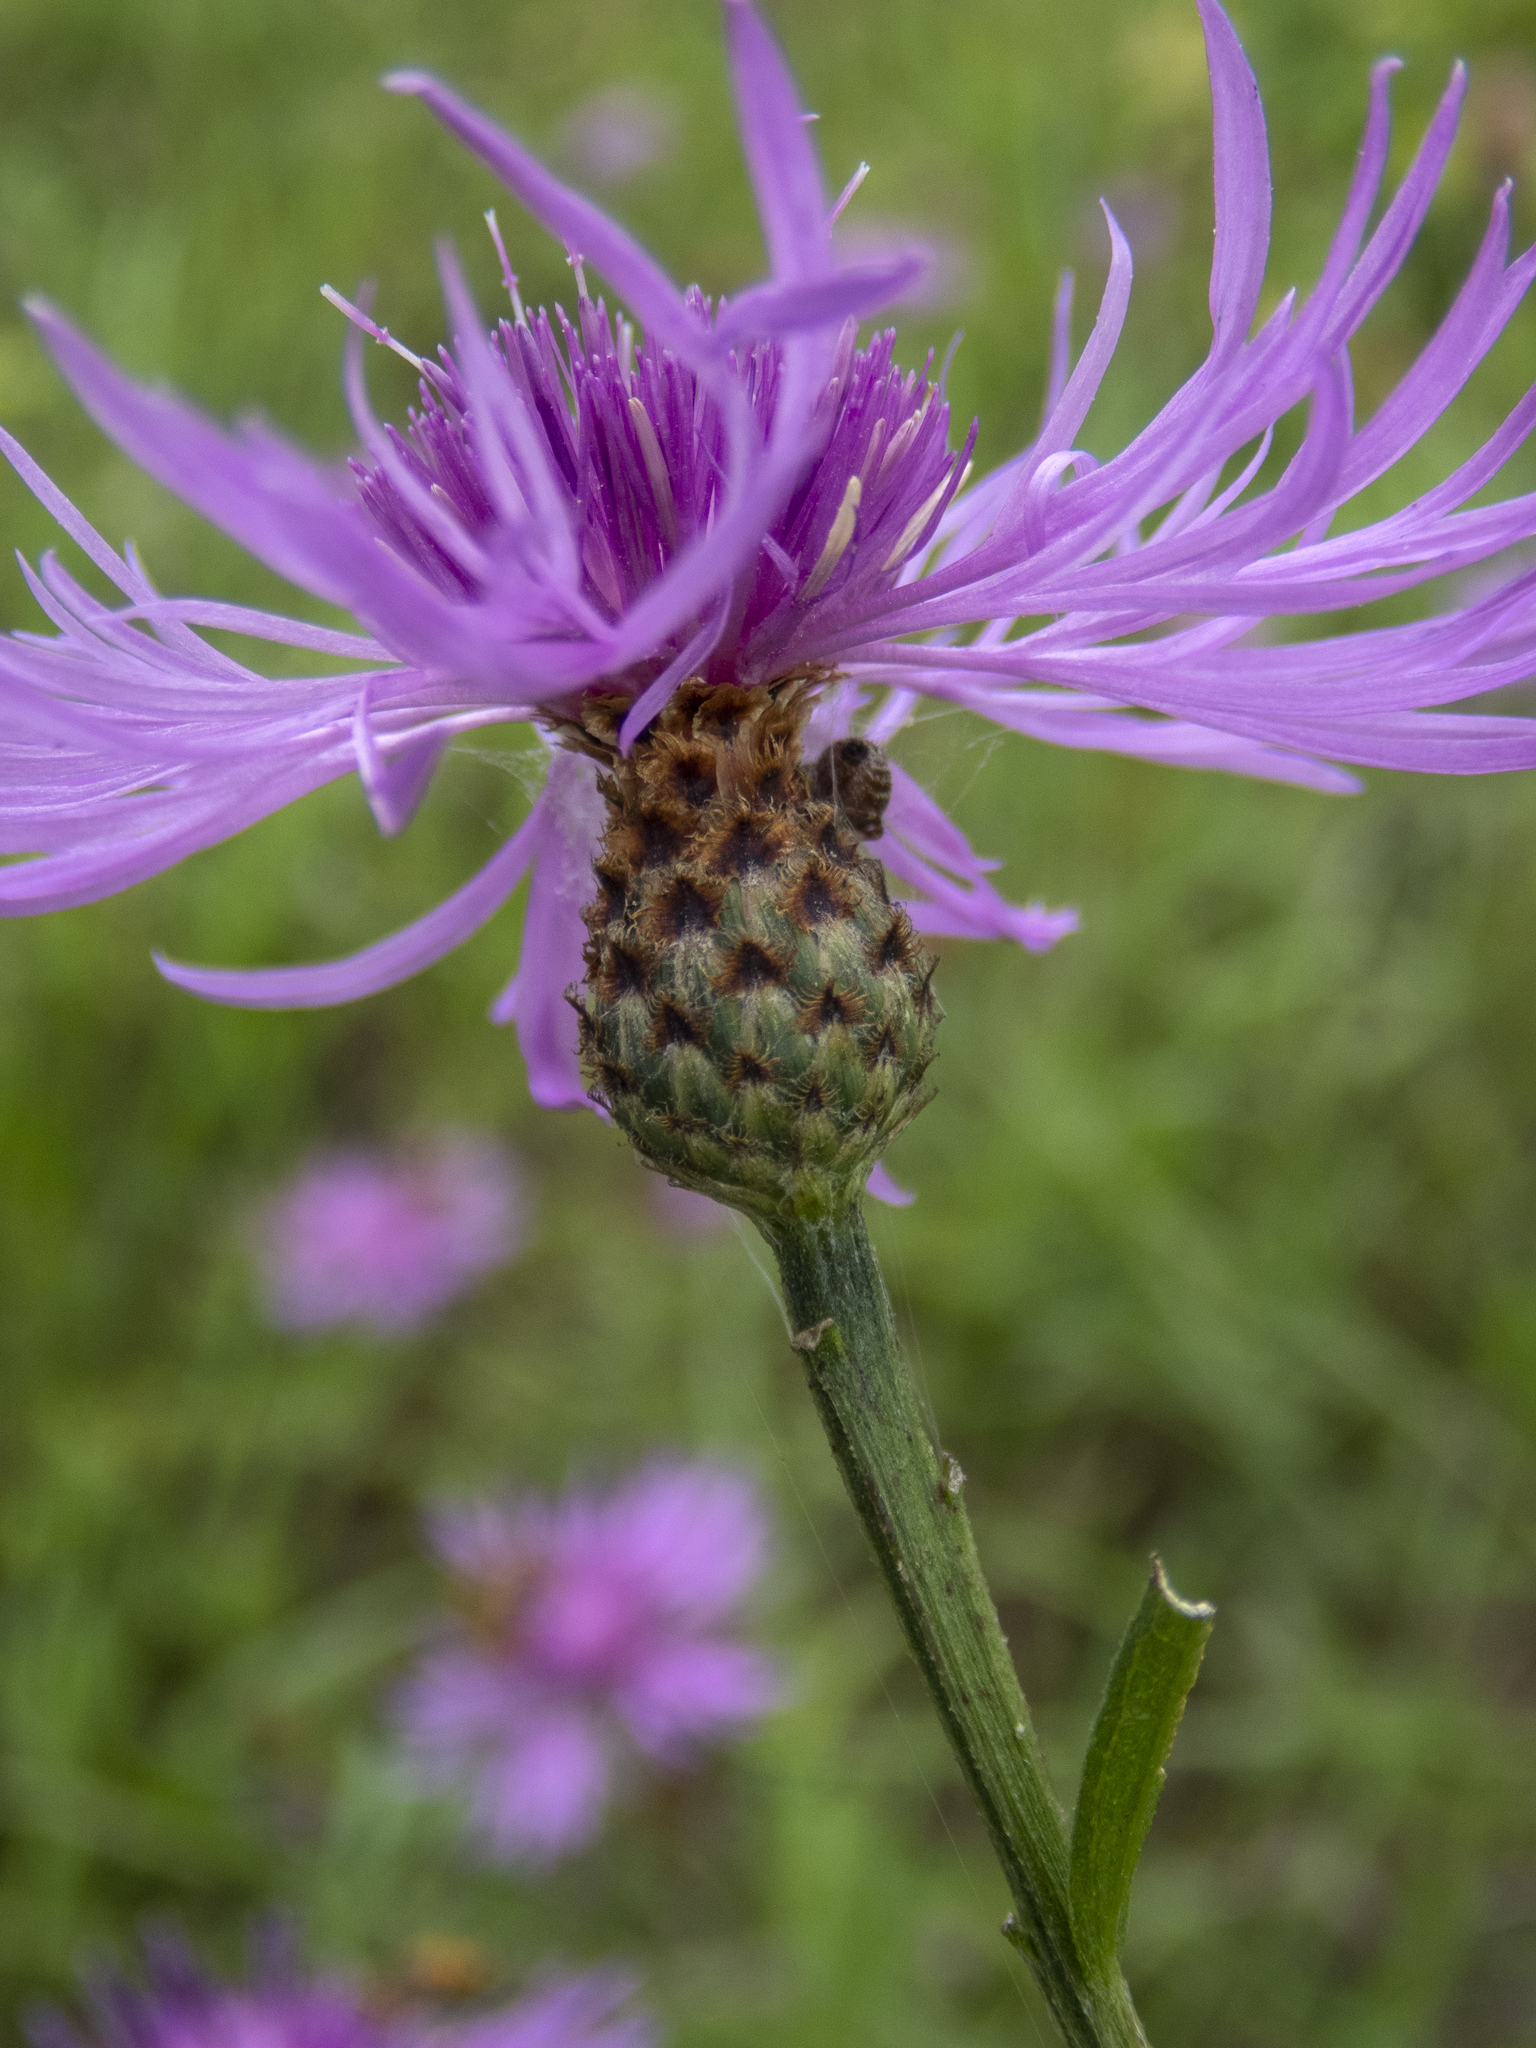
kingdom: Plantae
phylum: Tracheophyta
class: Magnoliopsida
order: Asterales
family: Asteraceae
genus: Centaurea
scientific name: Centaurea moncktonii
